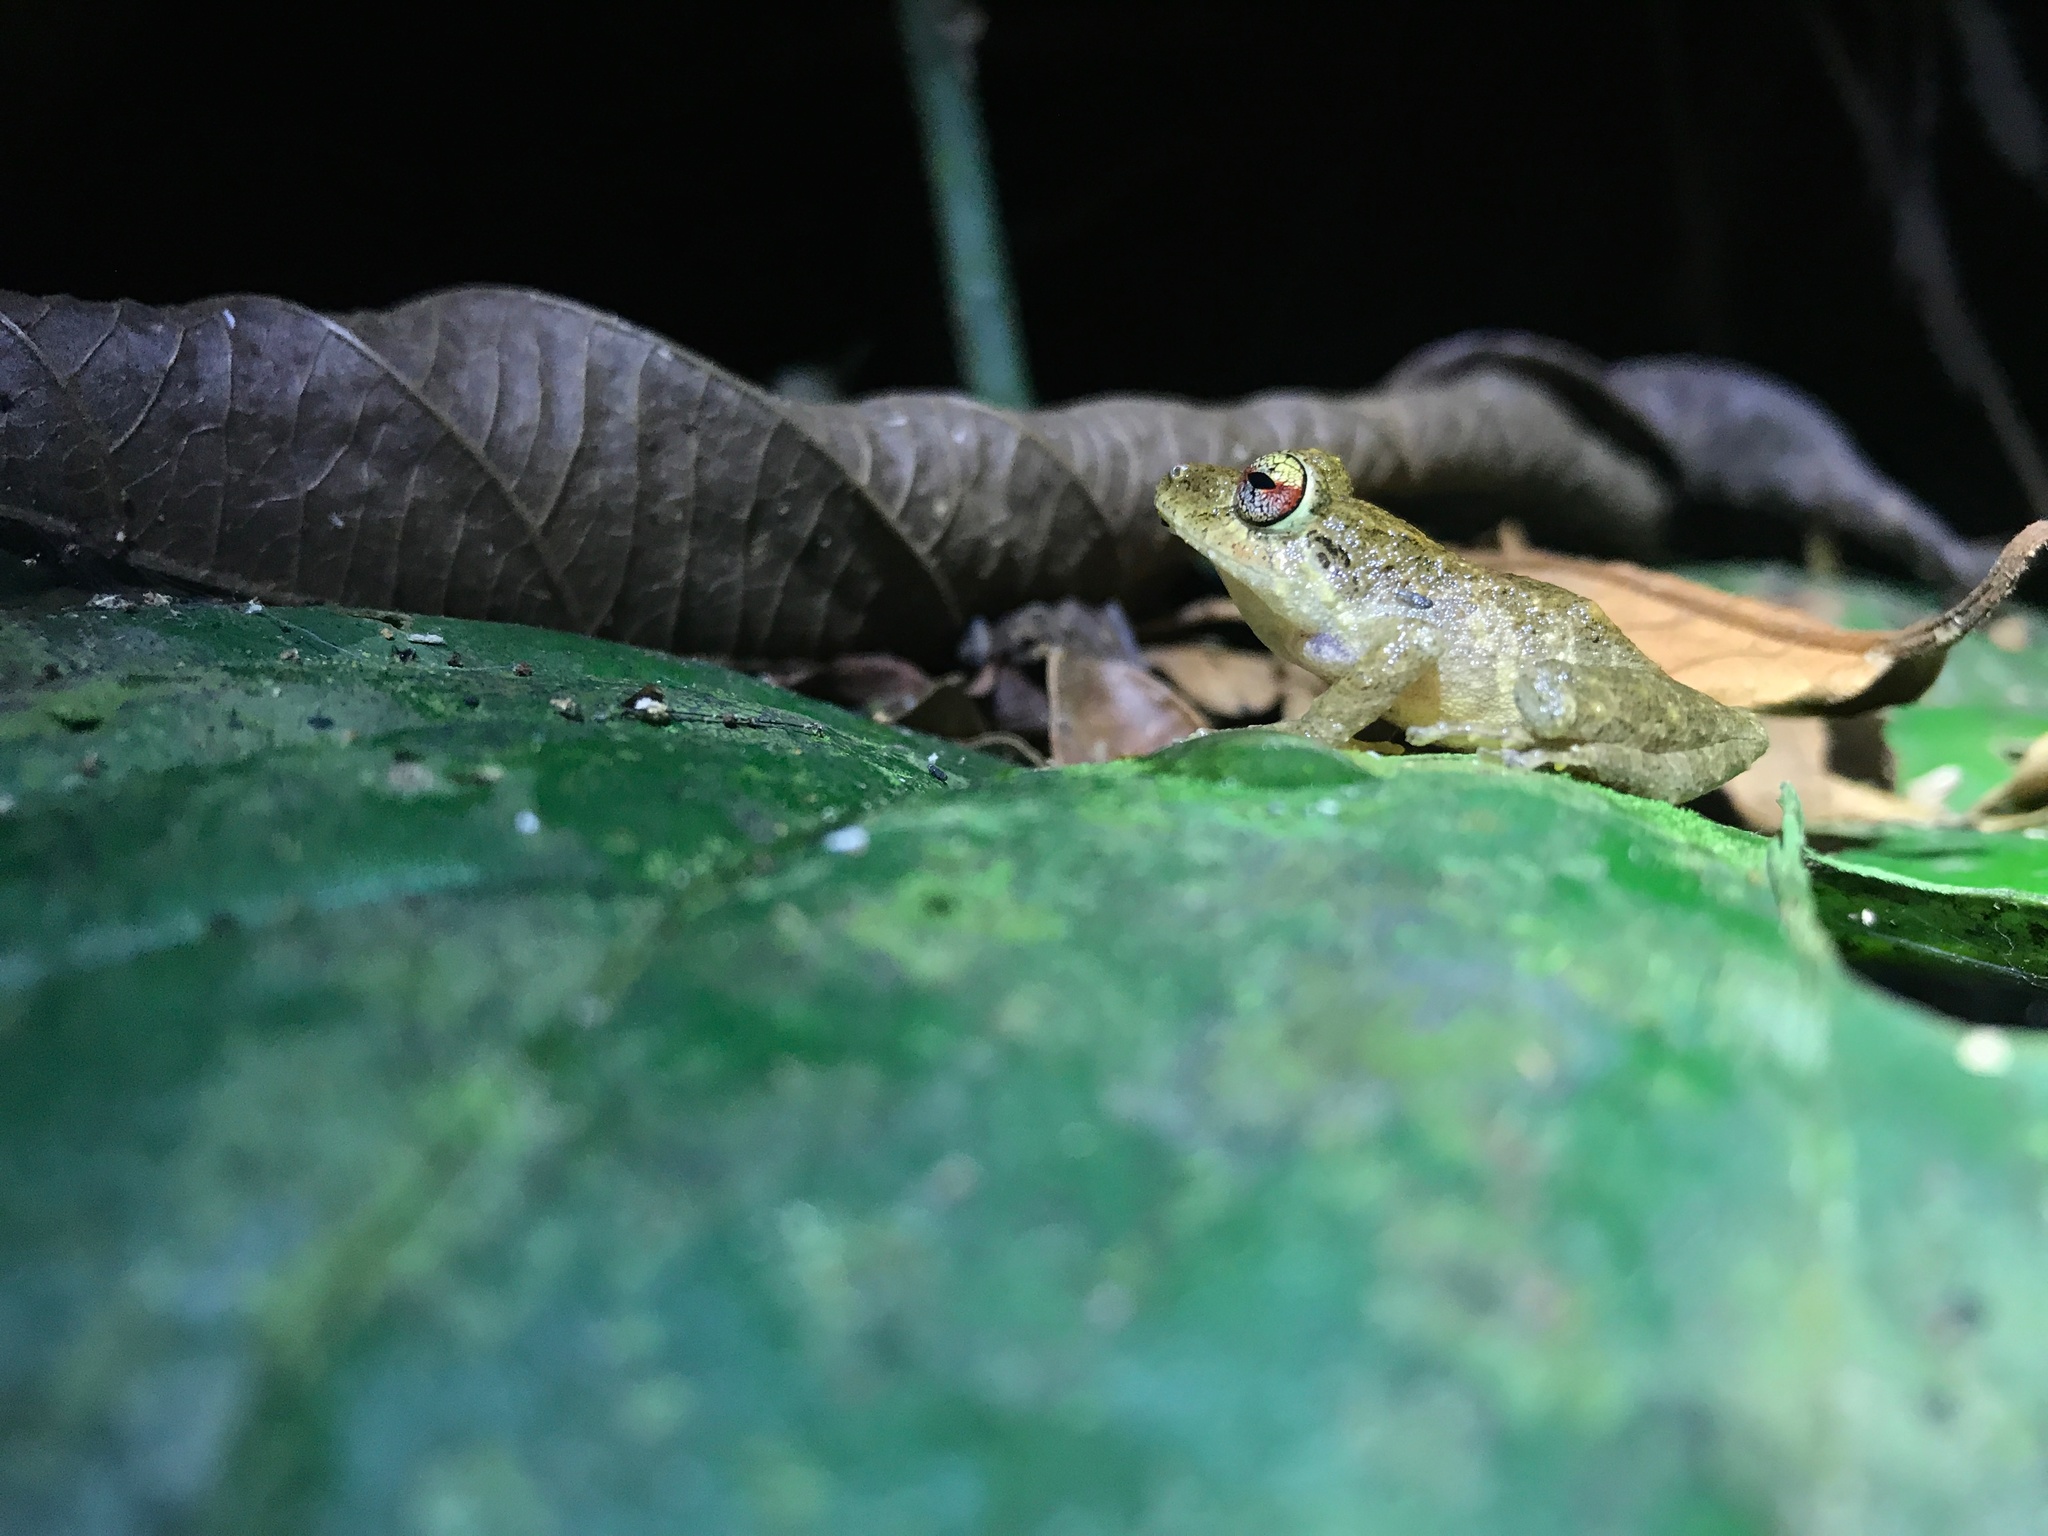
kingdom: Animalia
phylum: Chordata
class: Amphibia
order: Anura
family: Craugastoridae
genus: Pristimantis
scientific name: Pristimantis cruentus
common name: Chiriqui robber frog
